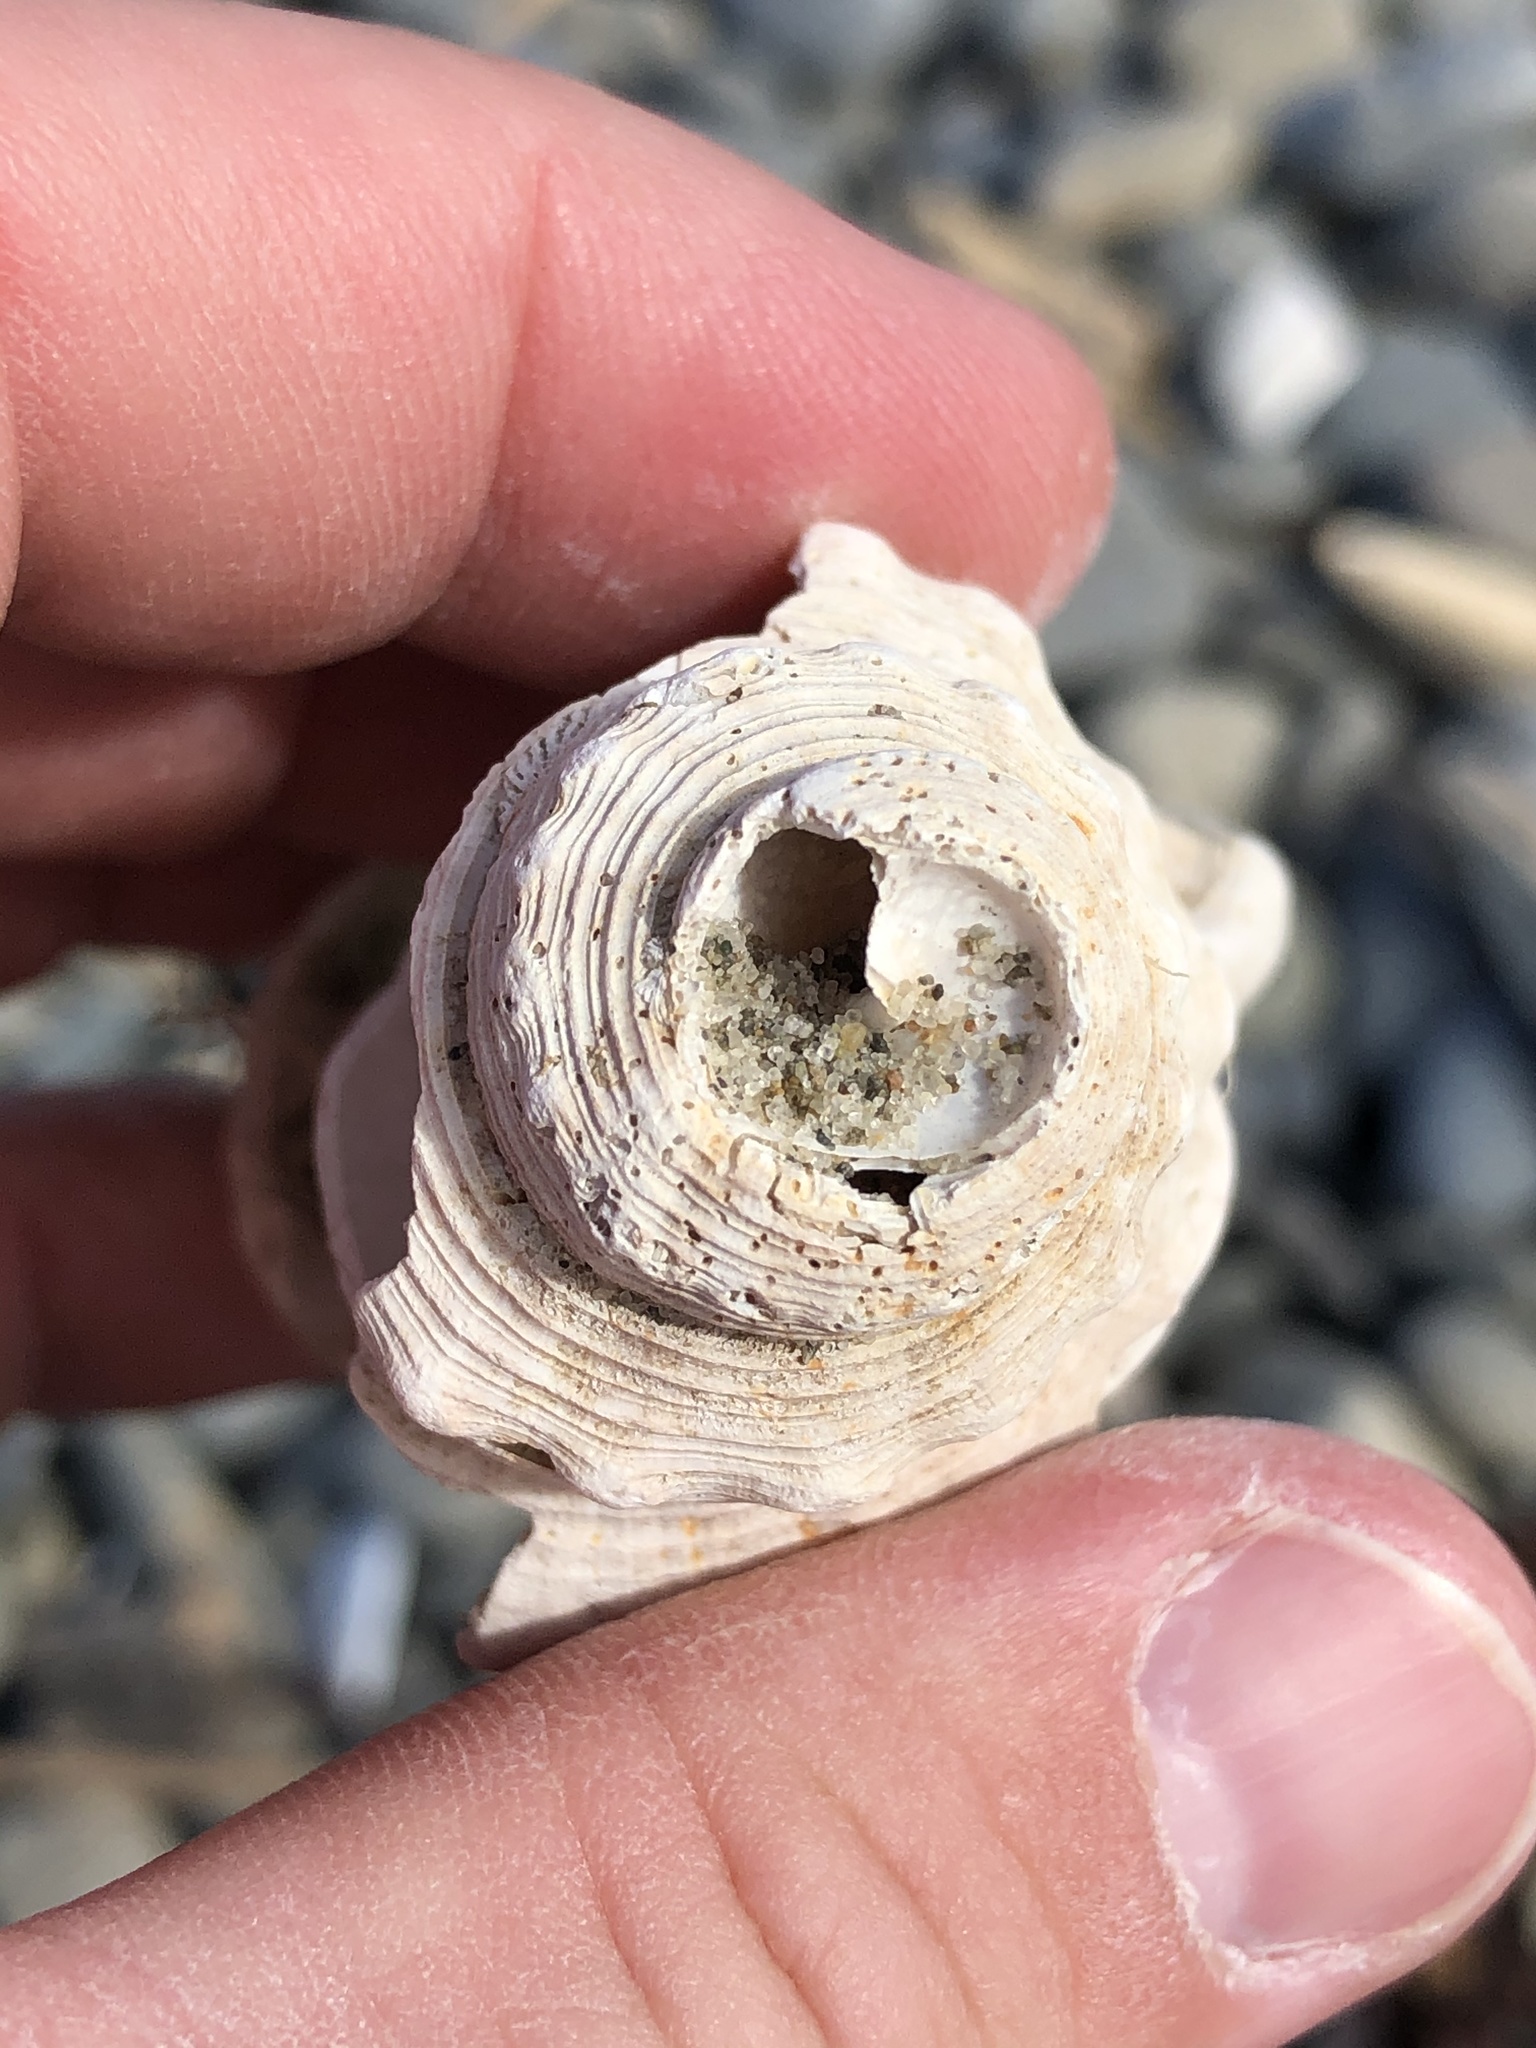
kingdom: Animalia
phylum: Mollusca
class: Gastropoda
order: Littorinimorpha
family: Struthiolariidae
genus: Struthiolaria
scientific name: Struthiolaria papulosa
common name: Large ostrich foot
